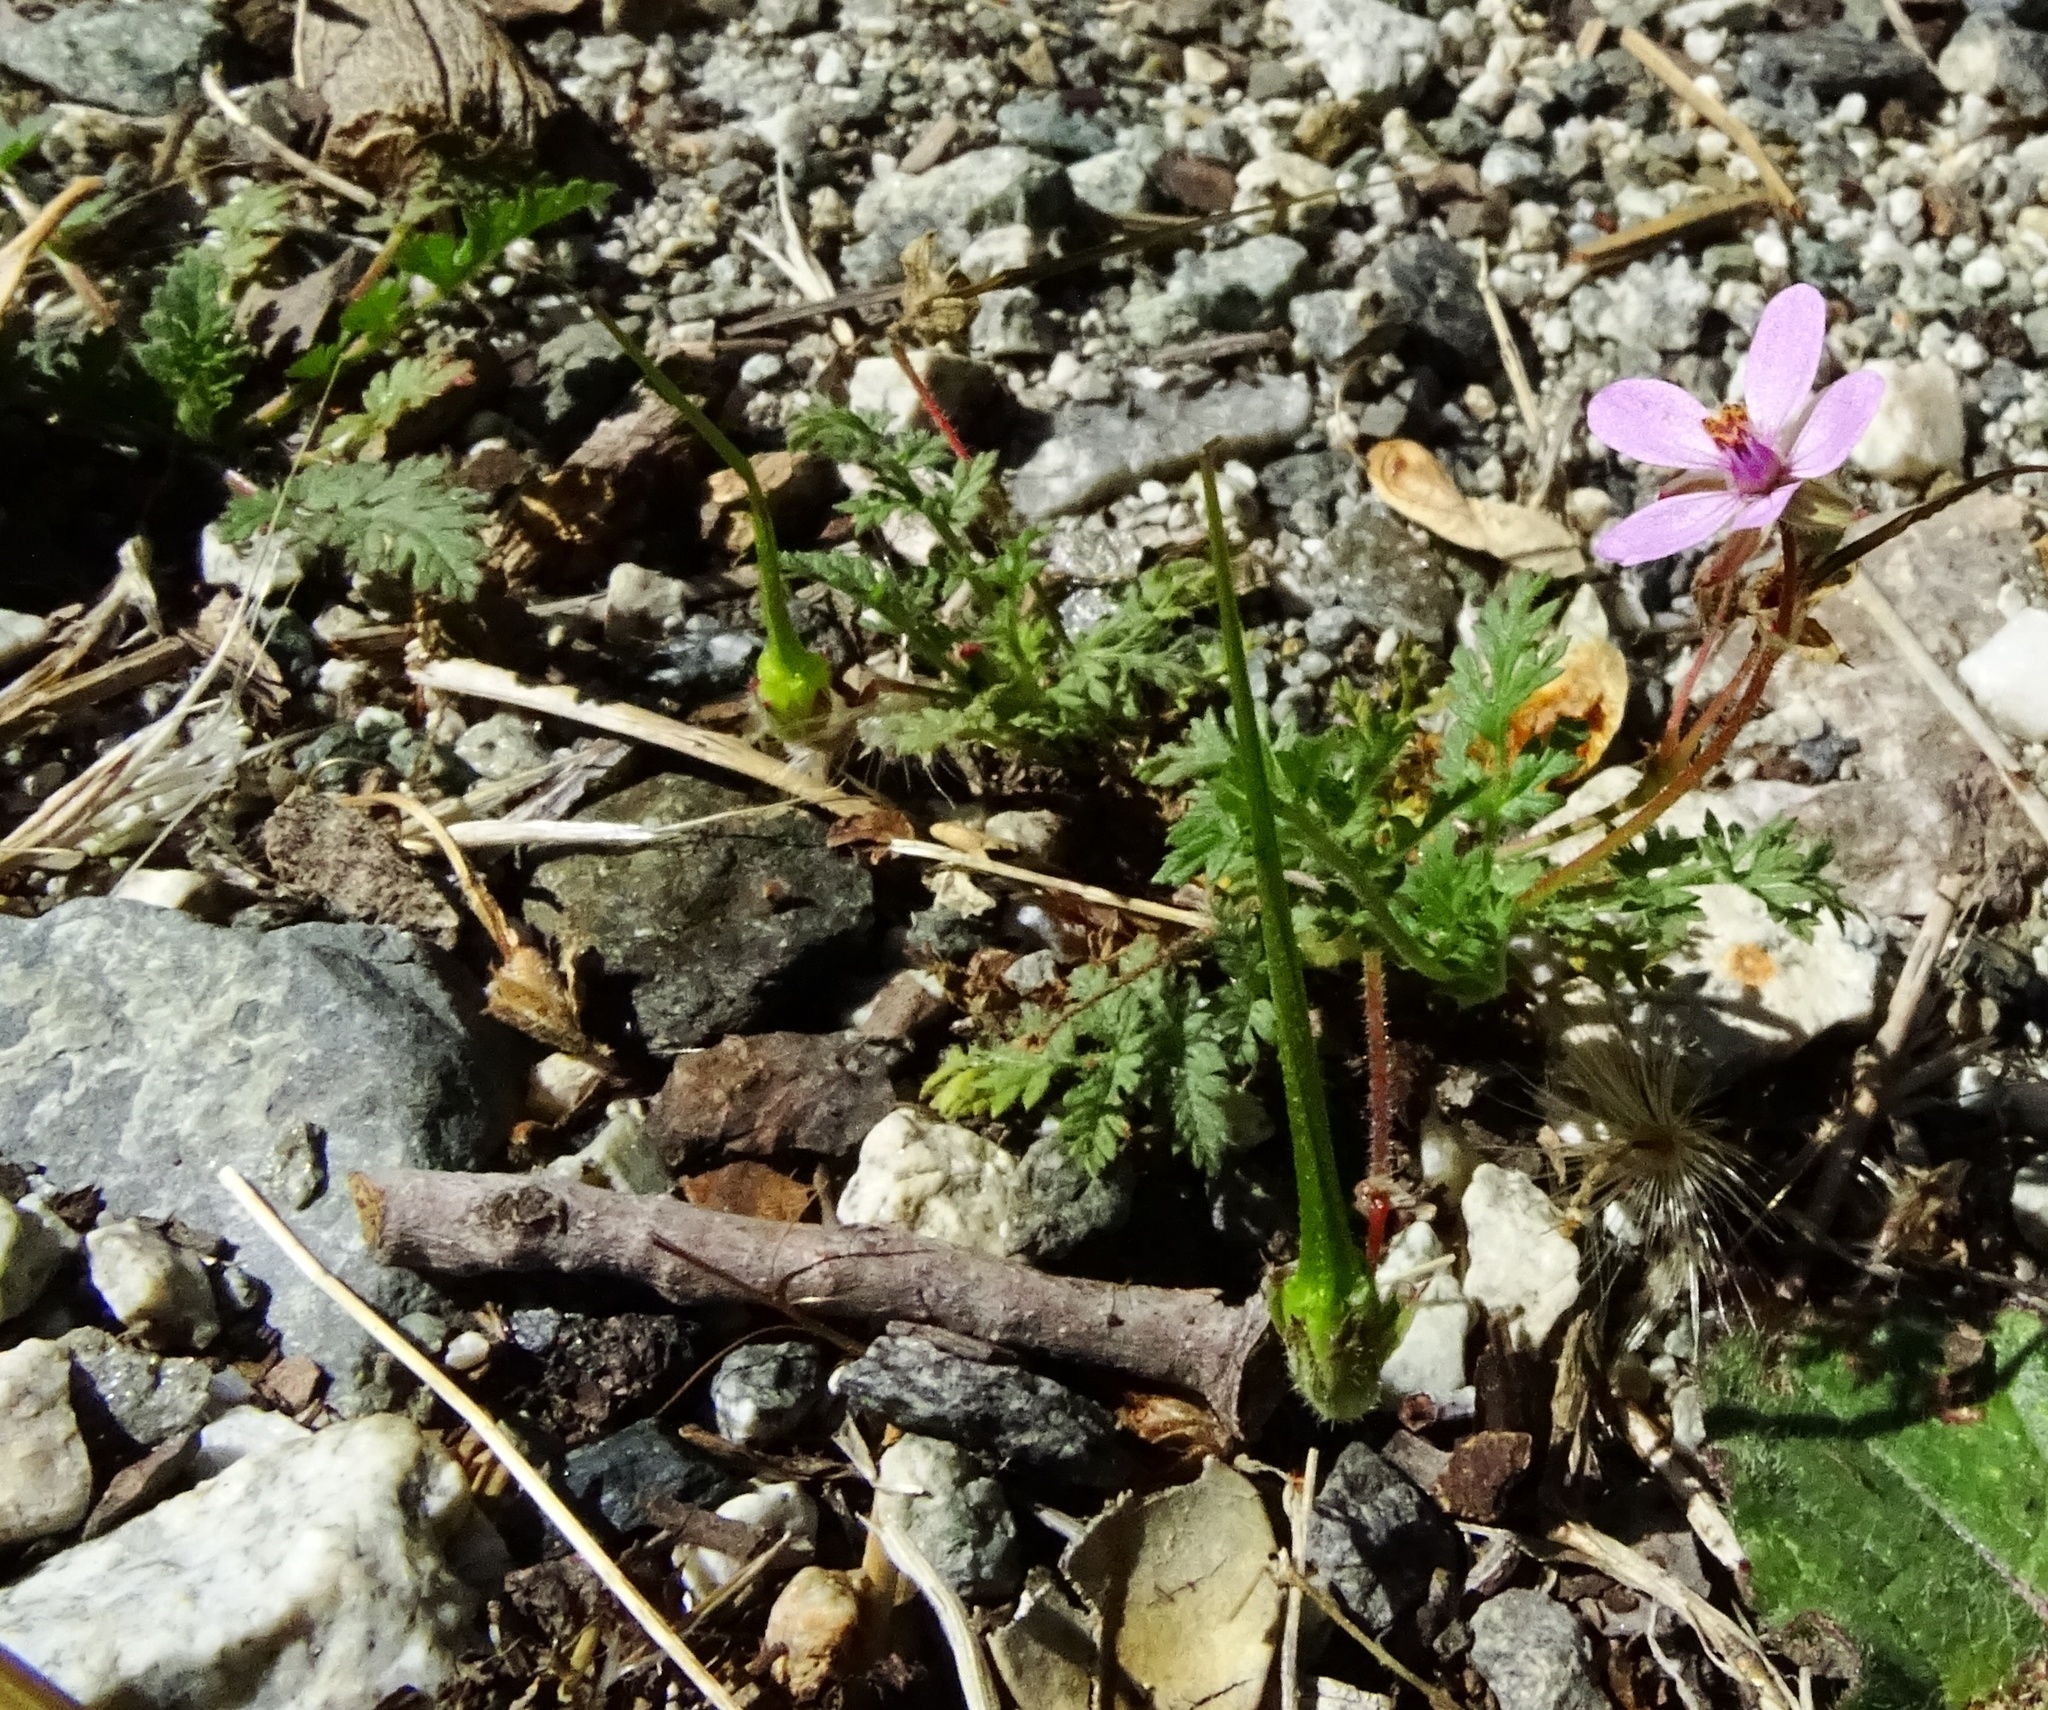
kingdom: Plantae
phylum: Tracheophyta
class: Magnoliopsida
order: Geraniales
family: Geraniaceae
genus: Erodium
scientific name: Erodium cicutarium
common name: Common stork's-bill
